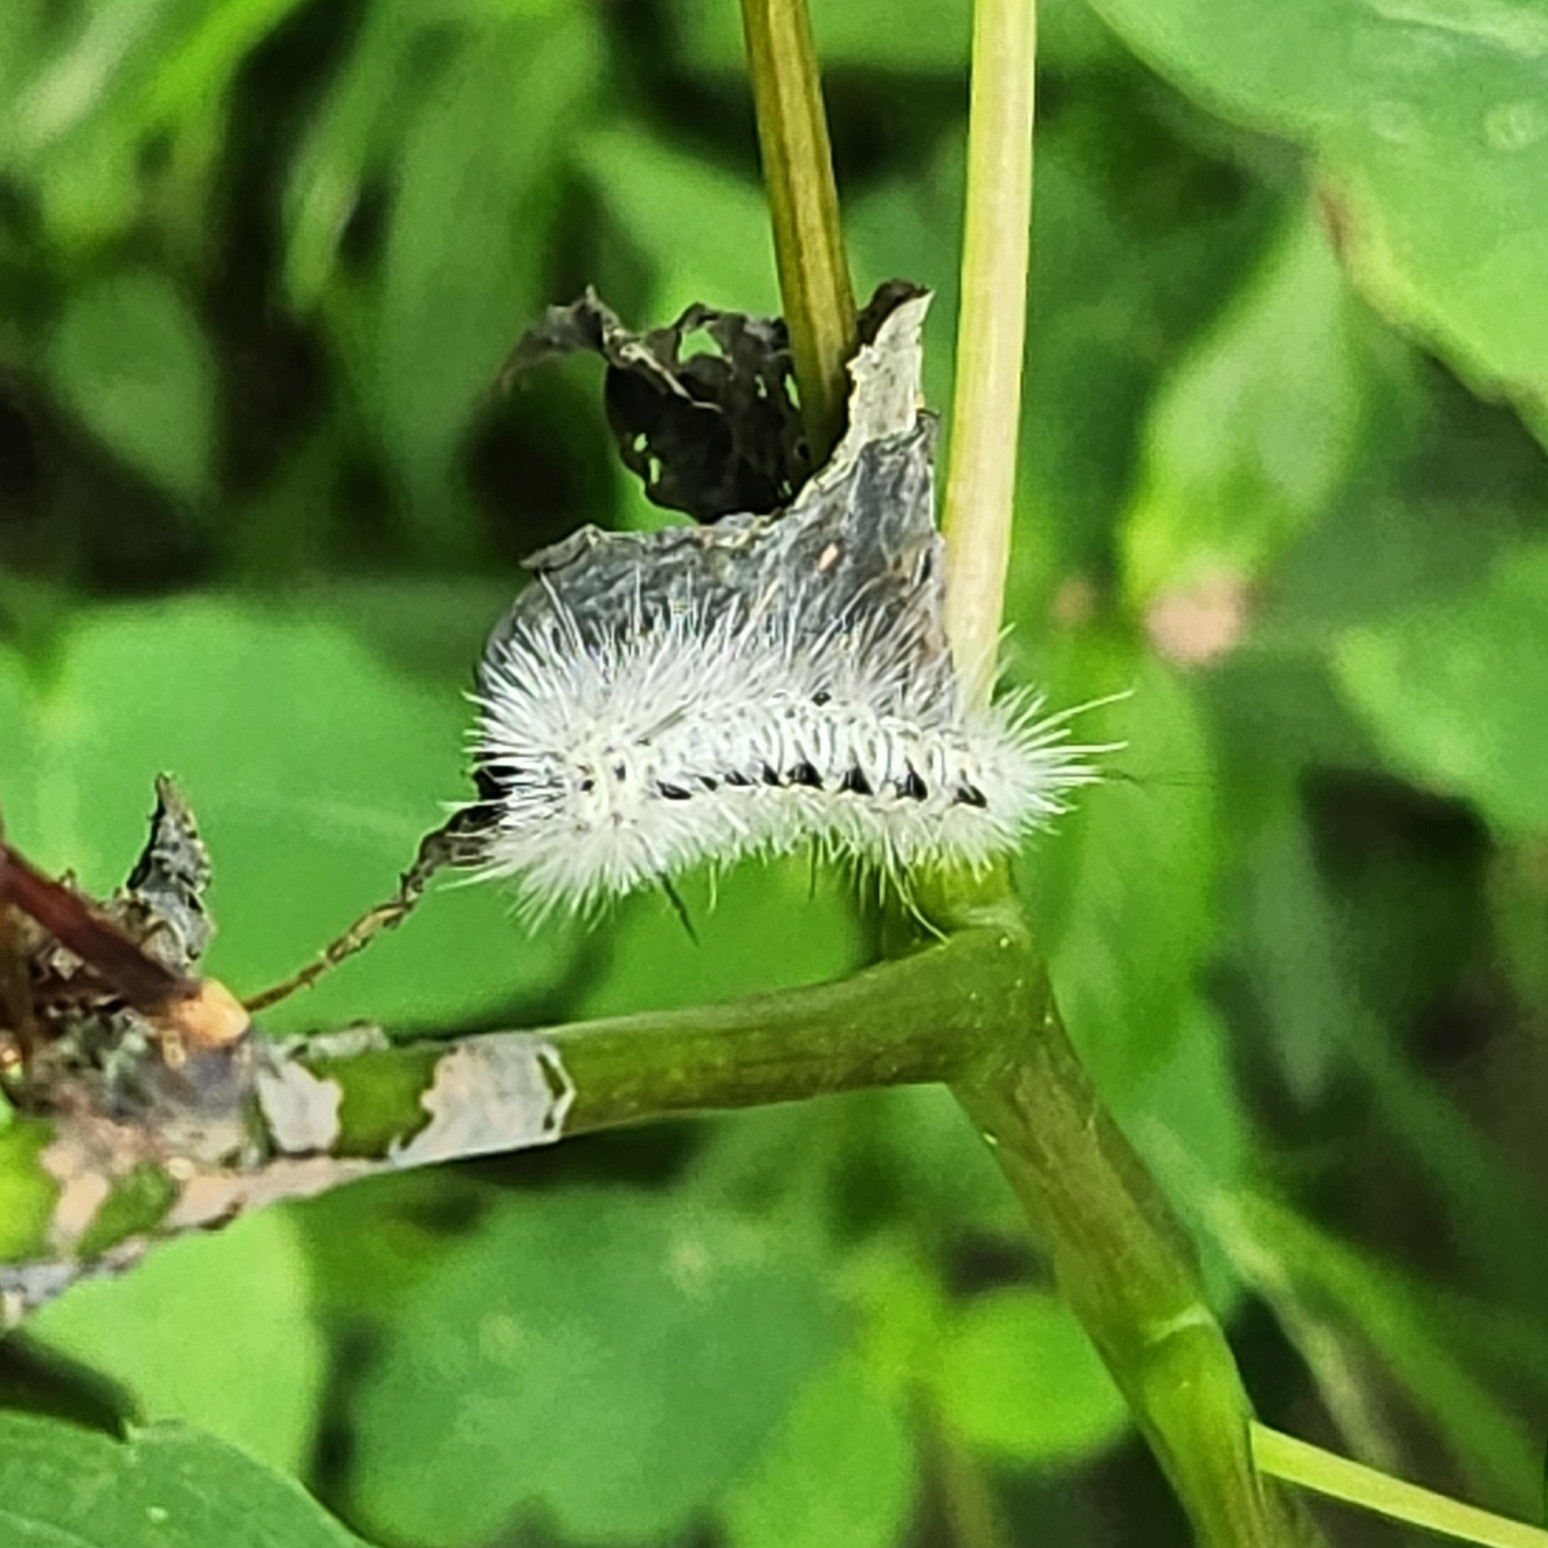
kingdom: Animalia
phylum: Arthropoda
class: Insecta
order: Lepidoptera
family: Erebidae
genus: Lophocampa
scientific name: Lophocampa caryae
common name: Hickory tussock moth
